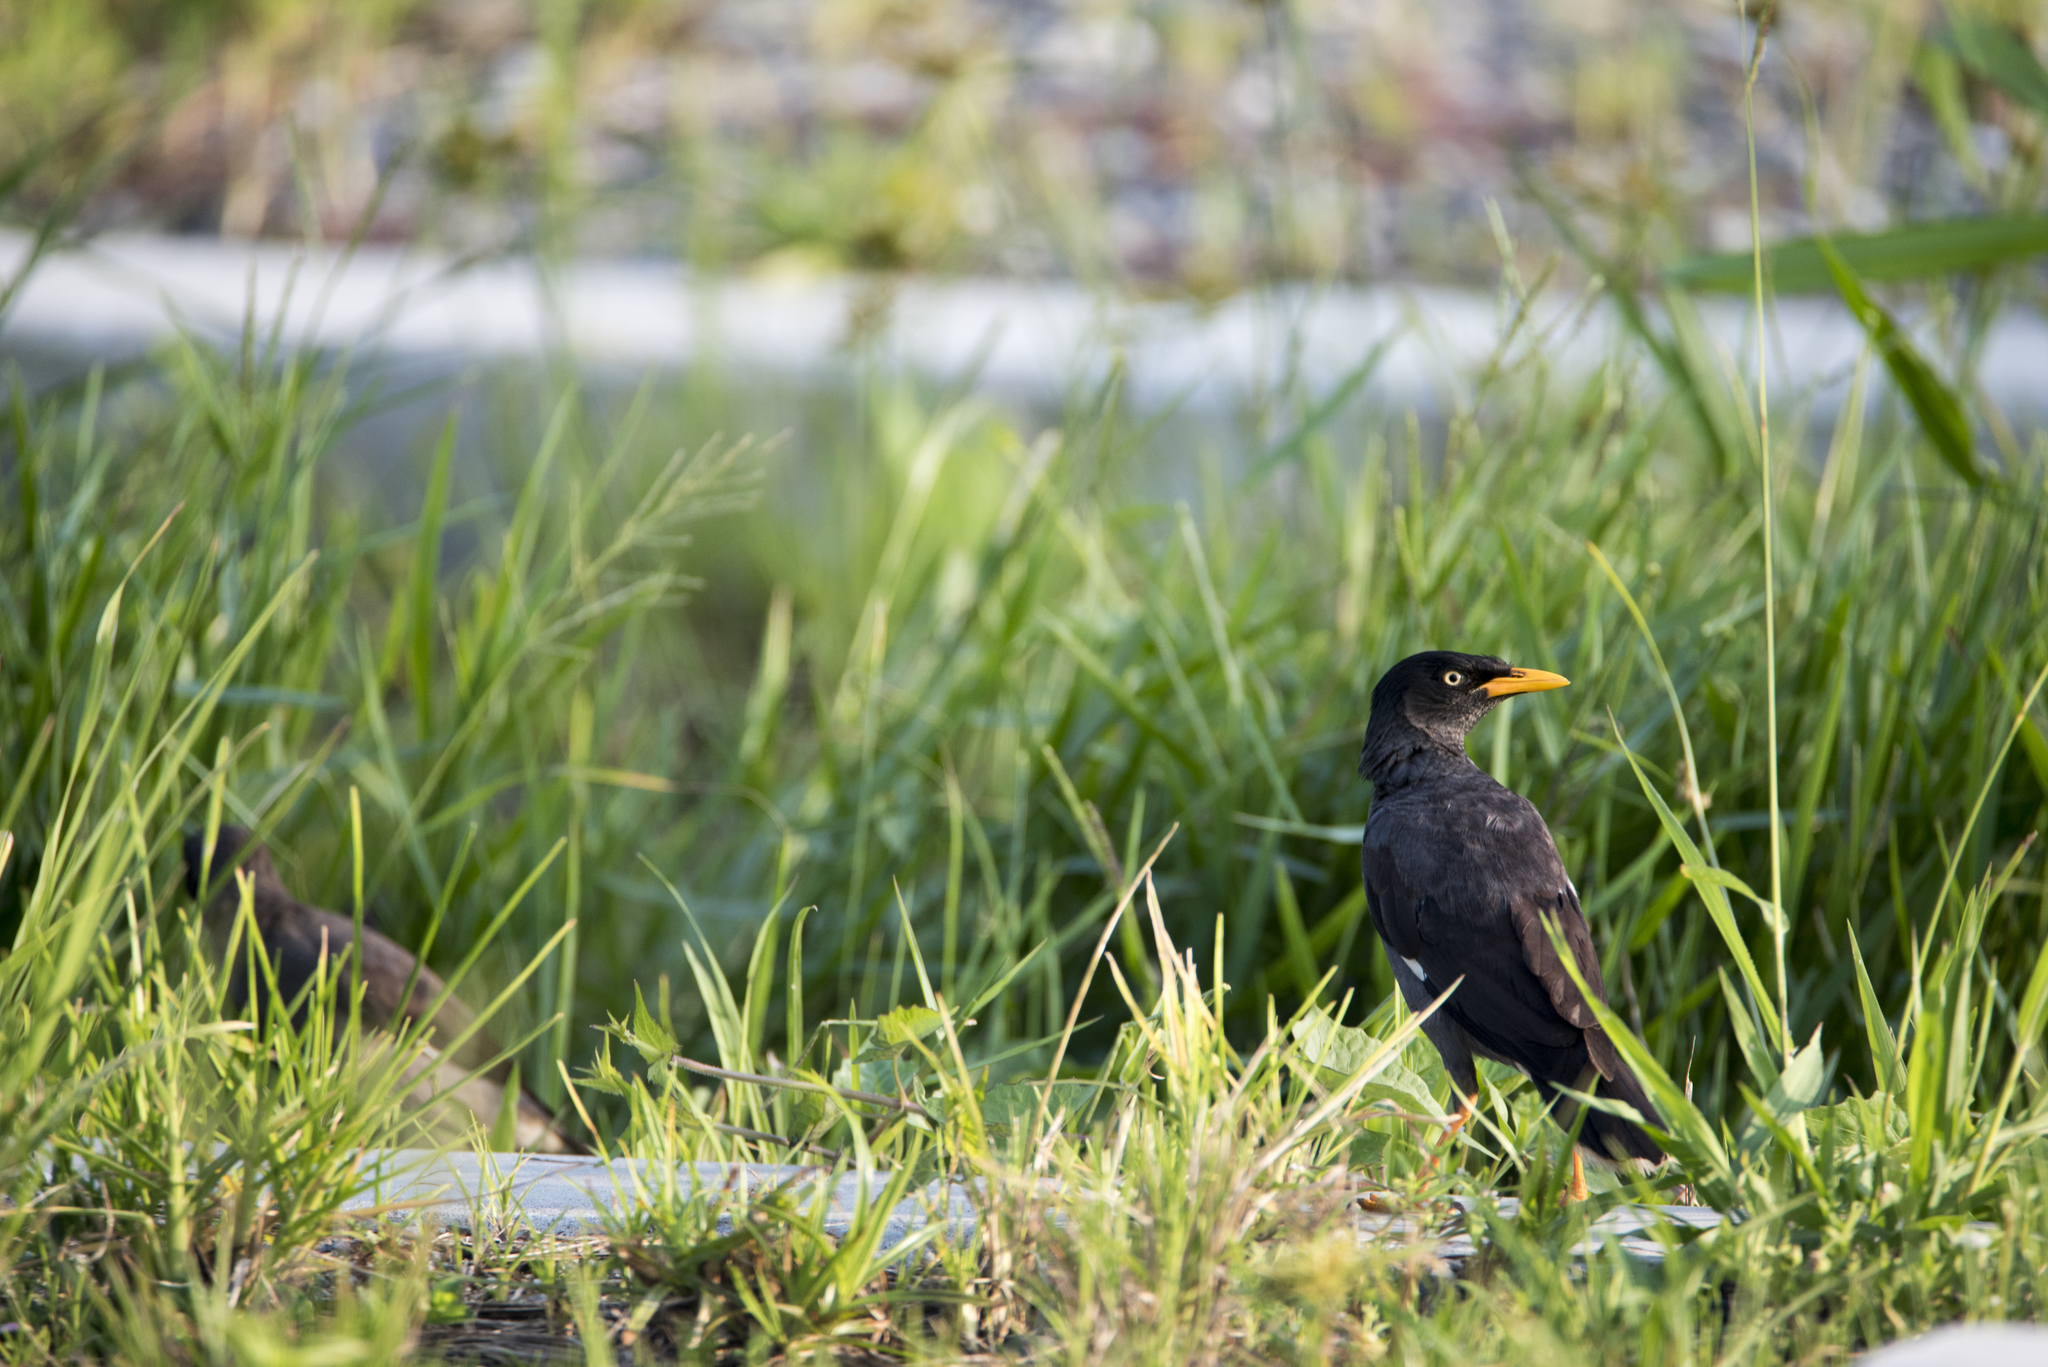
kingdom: Animalia
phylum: Chordata
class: Aves
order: Passeriformes
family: Sturnidae
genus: Acridotheres
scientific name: Acridotheres javanicus
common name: Javan myna
